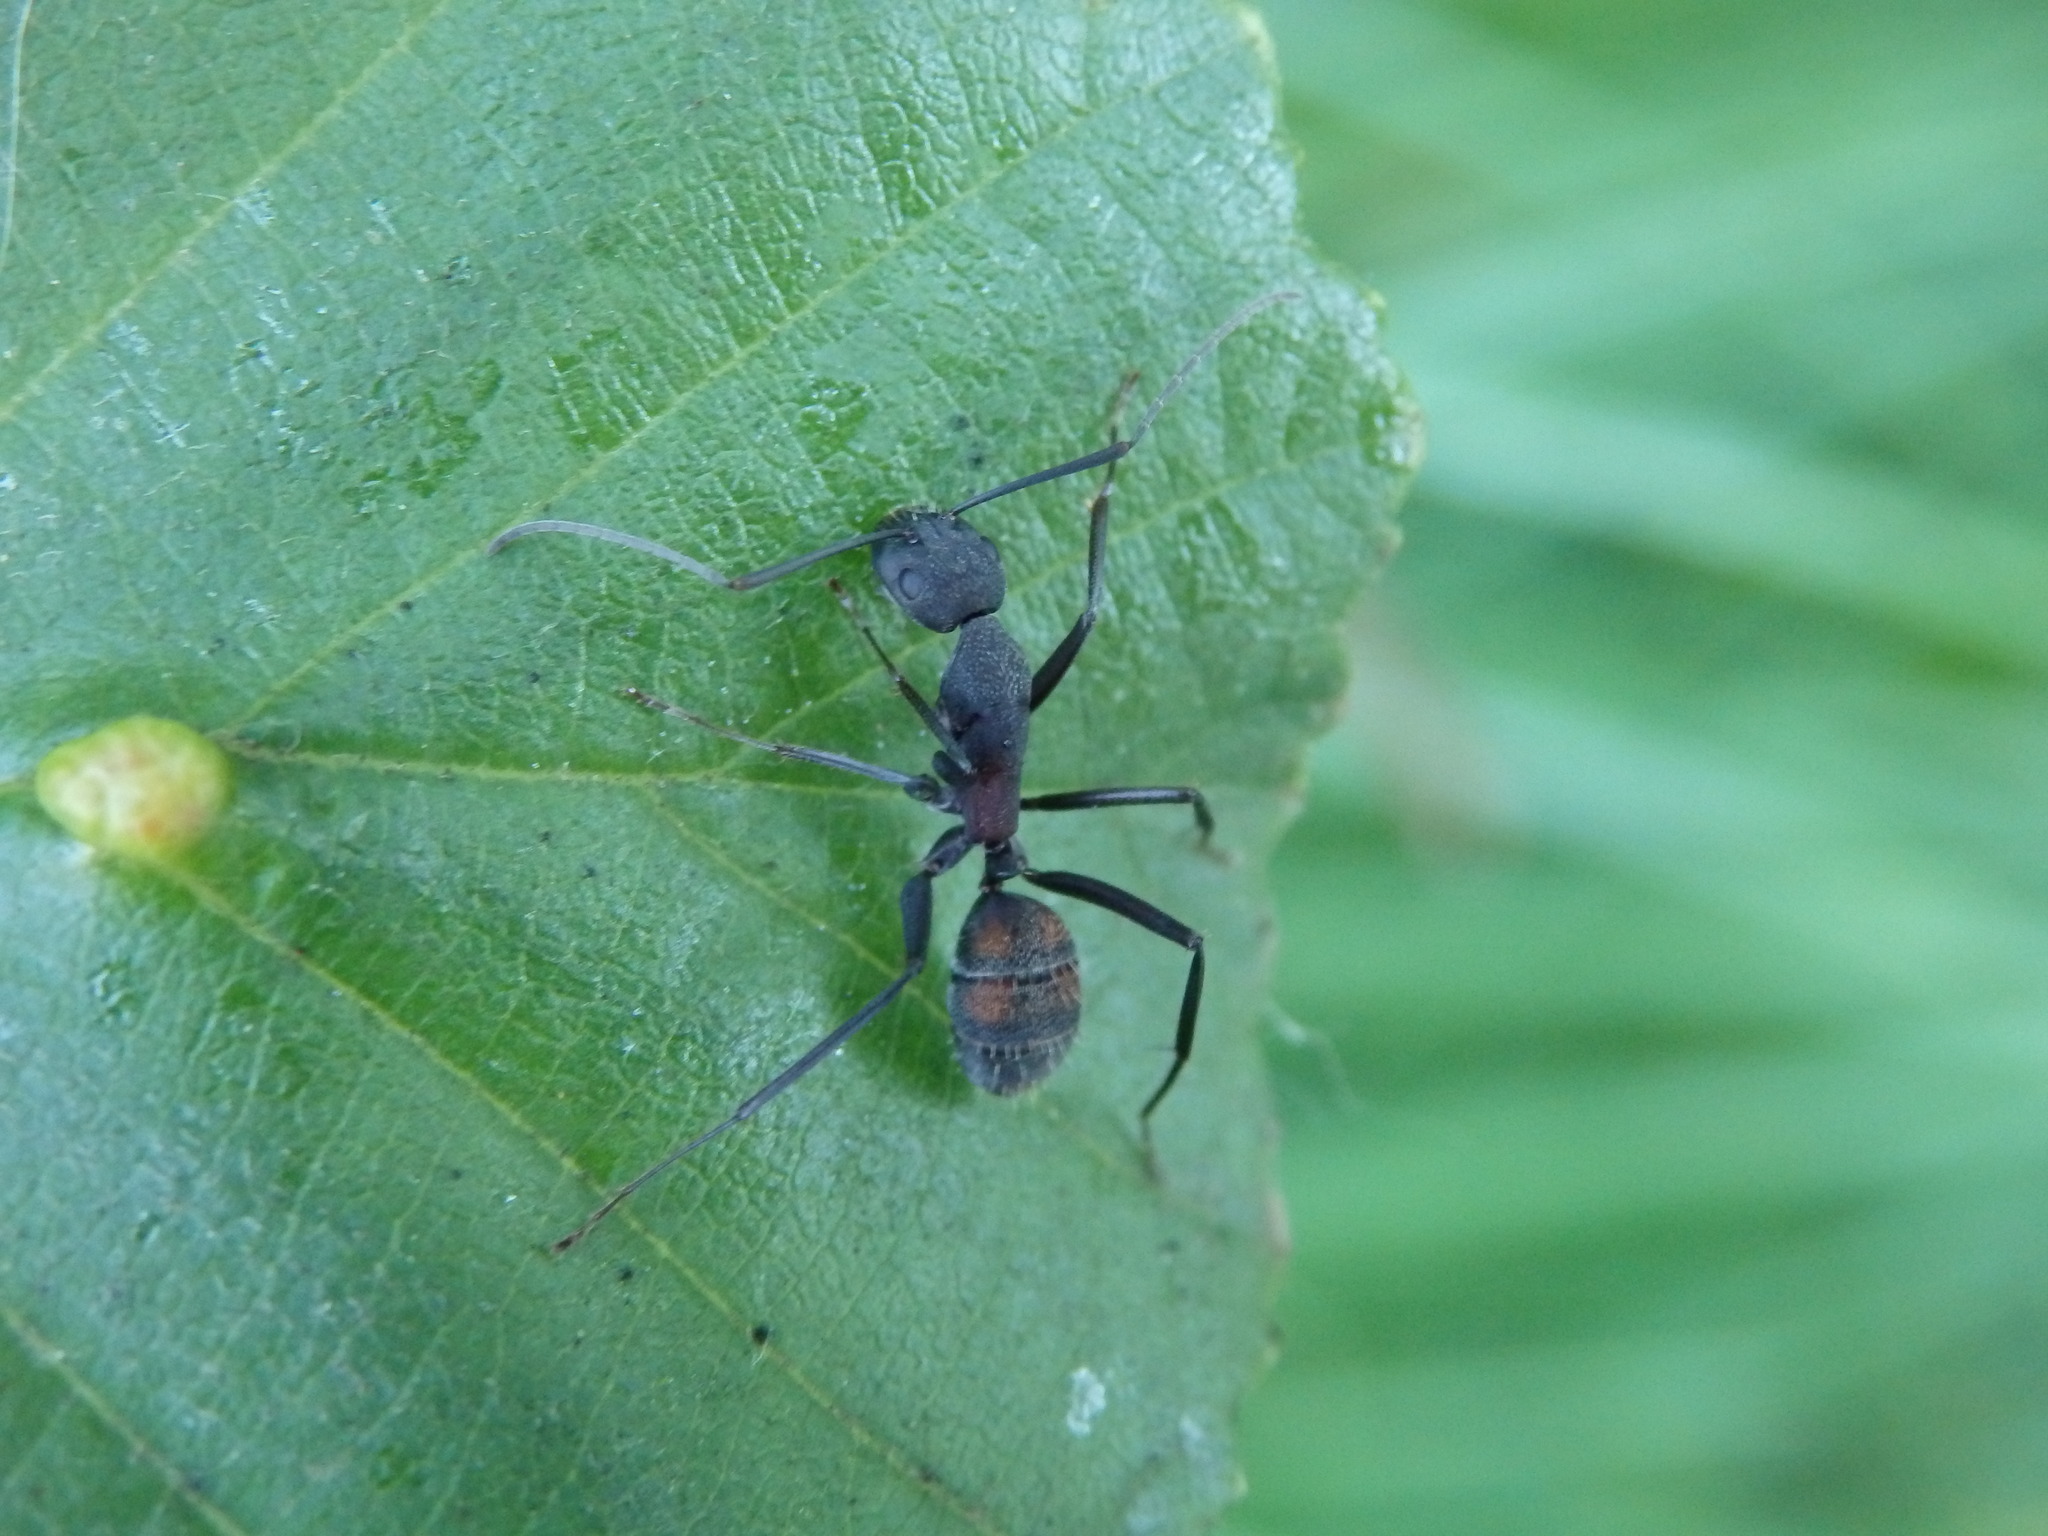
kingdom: Animalia
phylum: Arthropoda
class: Insecta
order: Hymenoptera
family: Formicidae
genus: Camponotus
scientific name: Camponotus cruentatus
